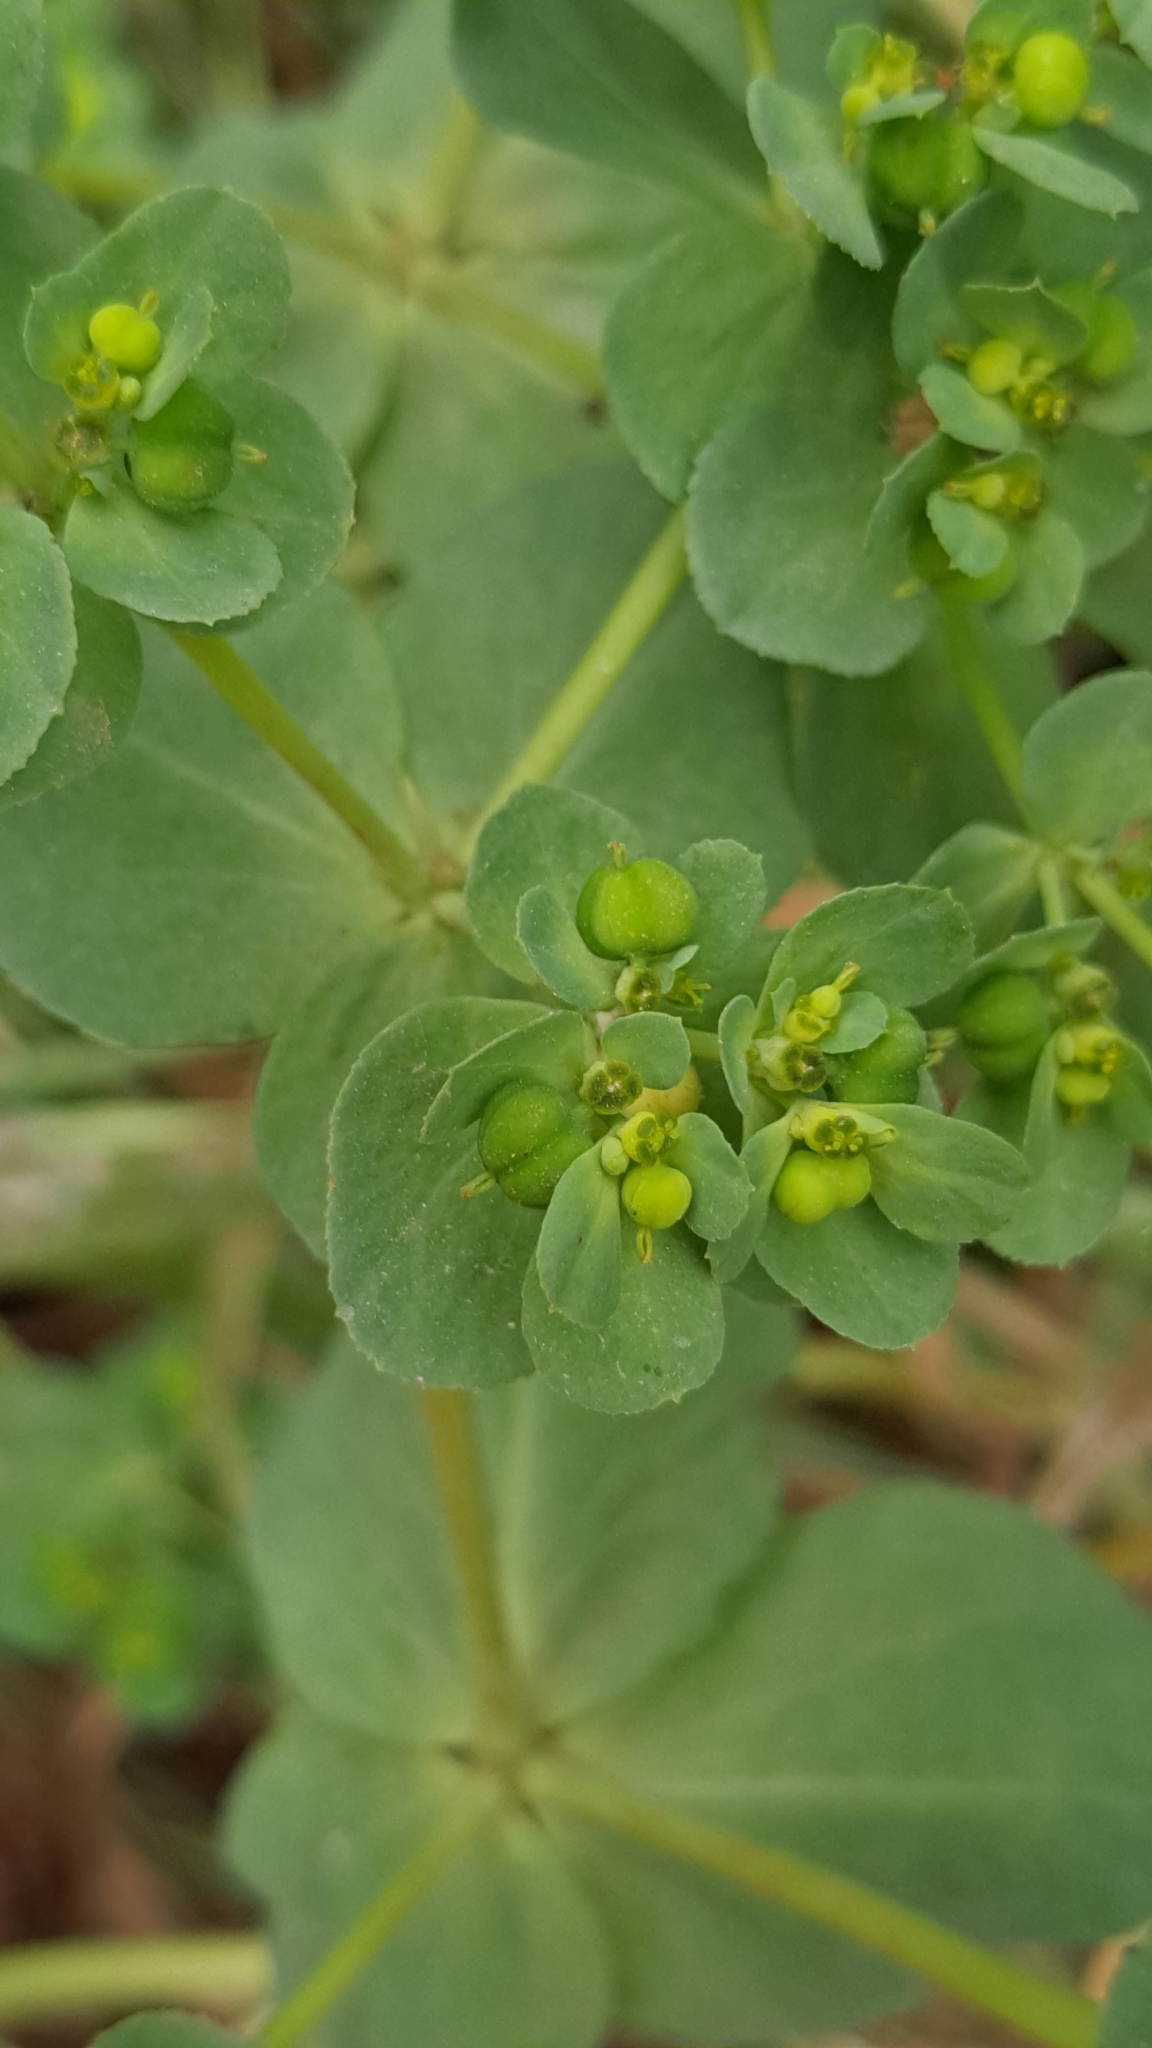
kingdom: Plantae
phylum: Tracheophyta
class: Magnoliopsida
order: Malpighiales
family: Euphorbiaceae
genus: Euphorbia
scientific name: Euphorbia helioscopia
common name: Sun spurge
